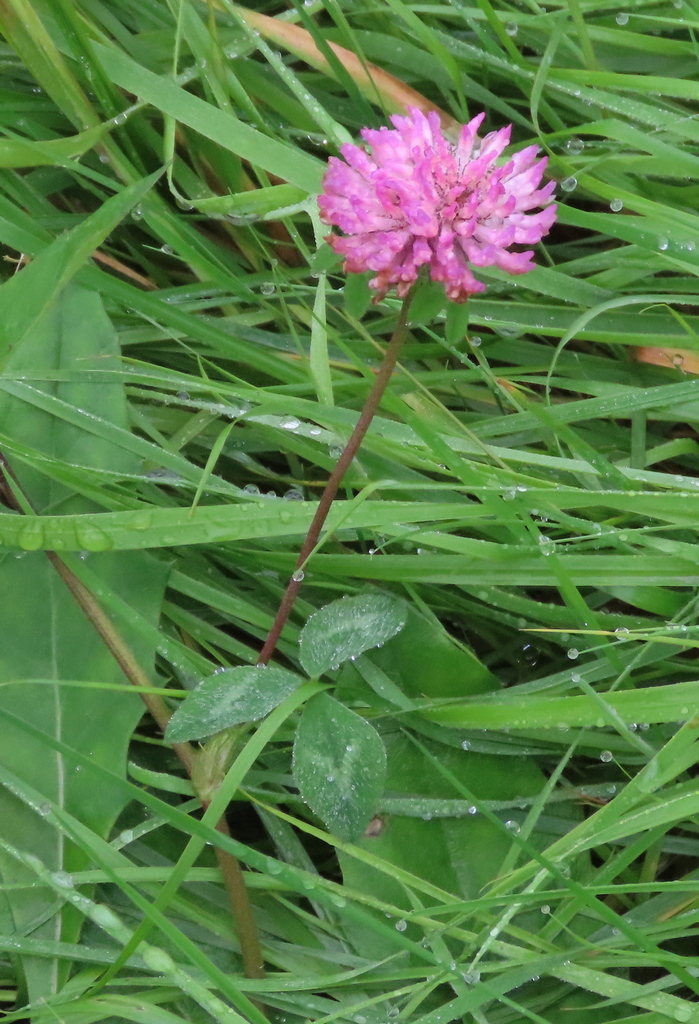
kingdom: Plantae
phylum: Tracheophyta
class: Magnoliopsida
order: Fabales
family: Fabaceae
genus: Trifolium
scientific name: Trifolium pratense
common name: Red clover
